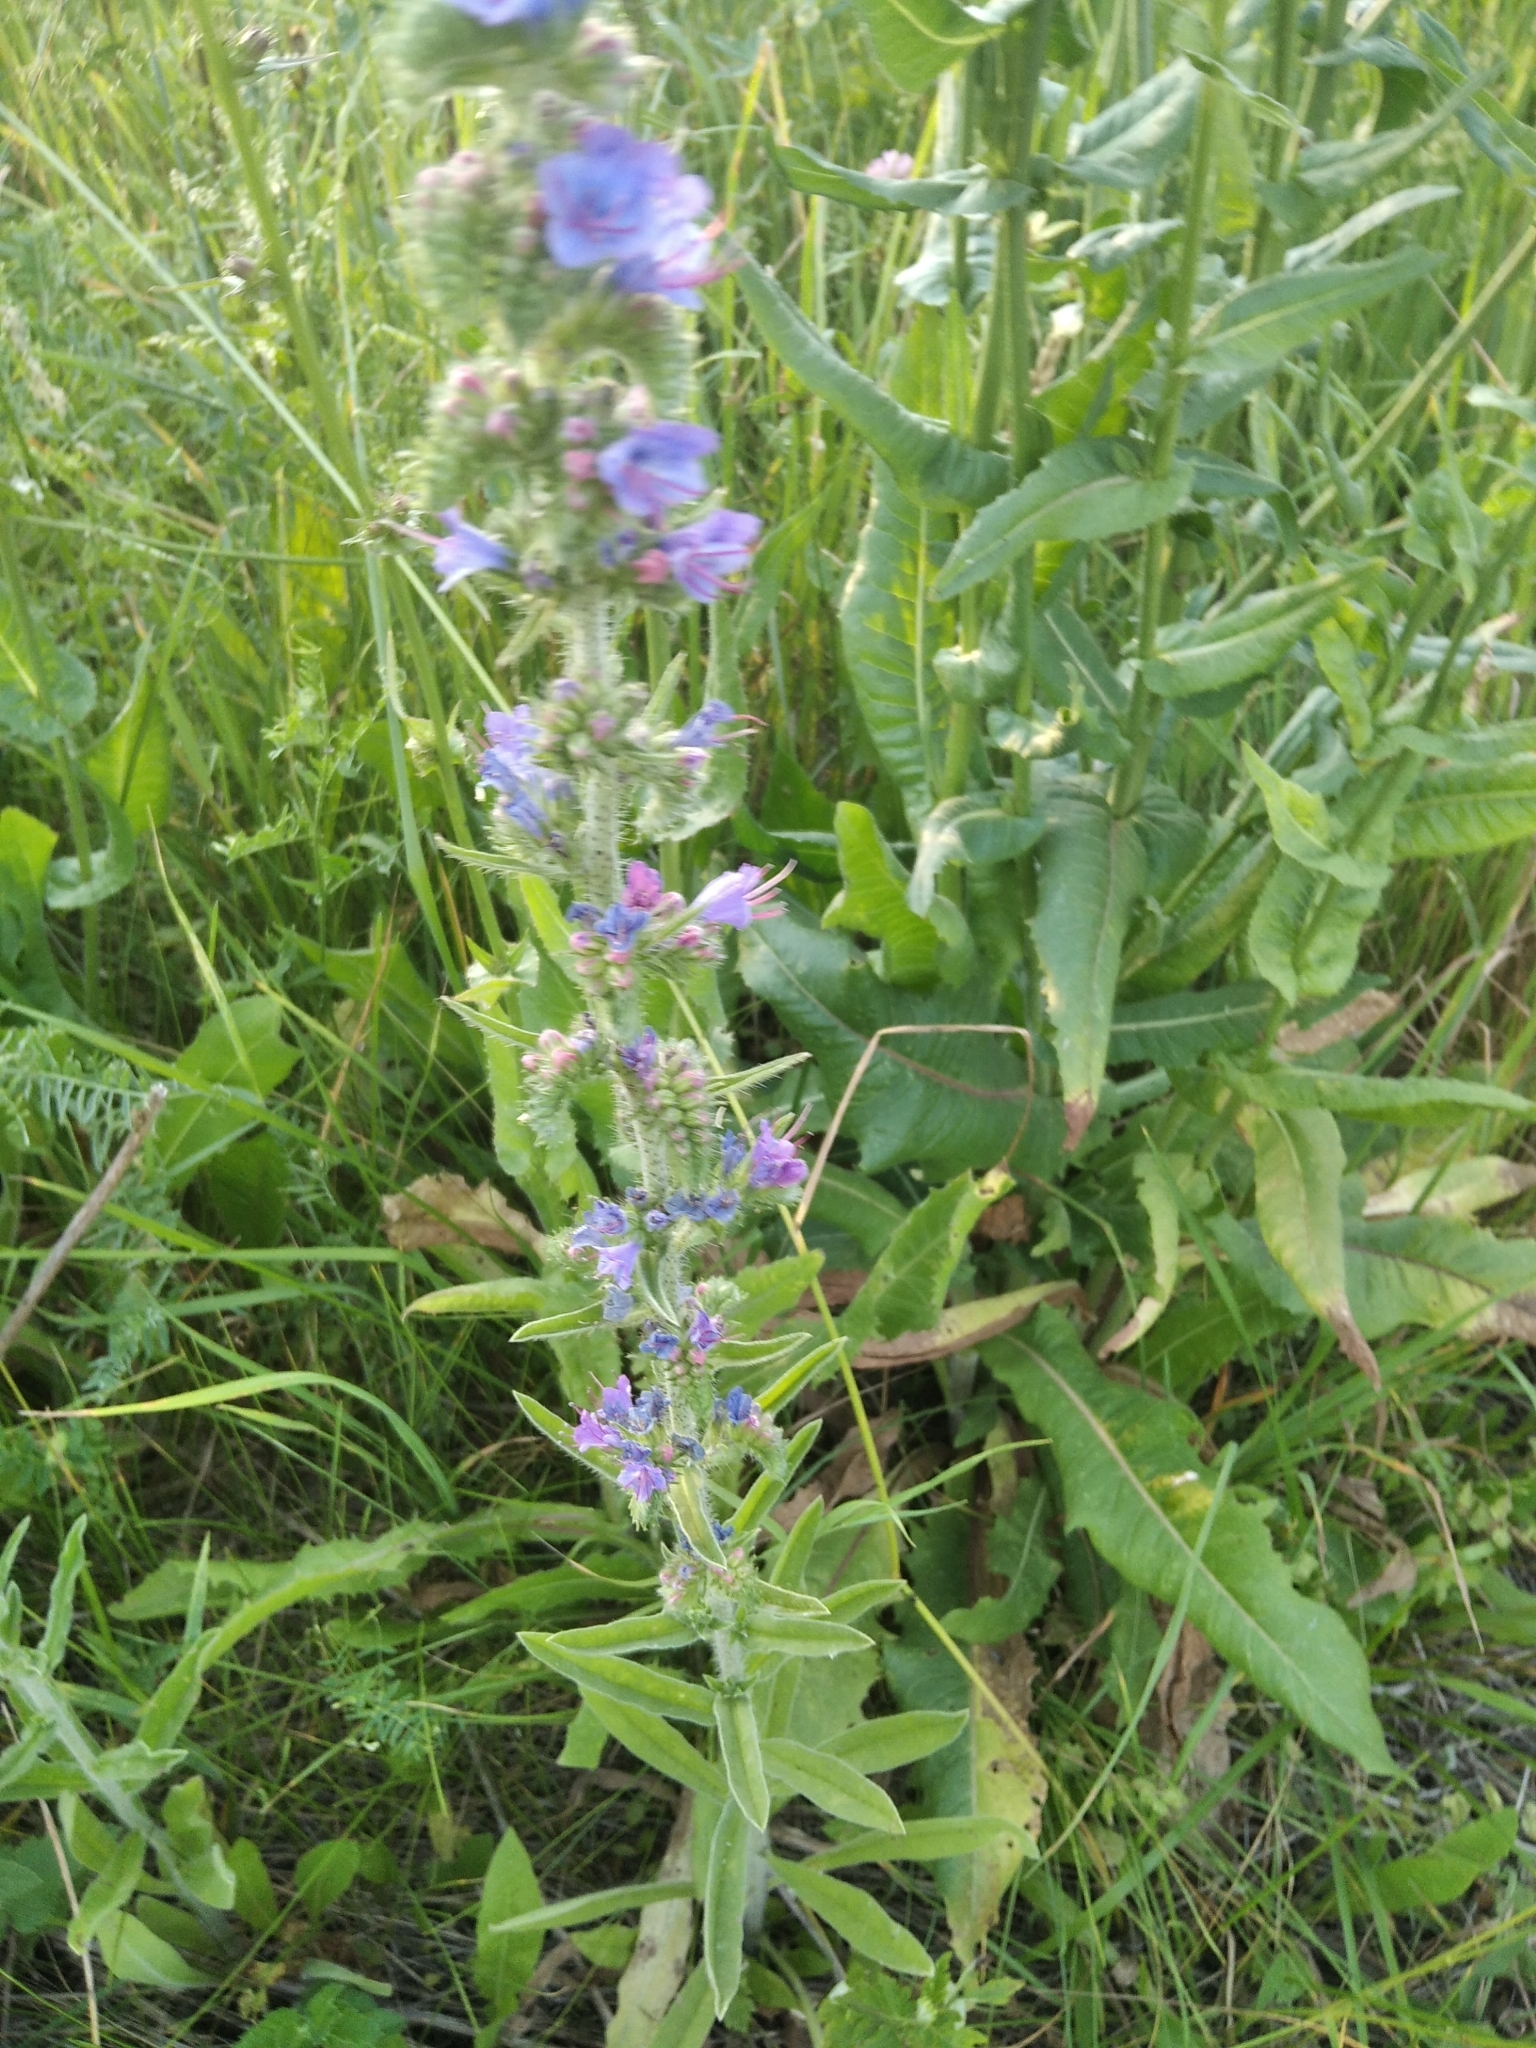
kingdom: Plantae
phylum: Tracheophyta
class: Magnoliopsida
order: Boraginales
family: Boraginaceae
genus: Echium
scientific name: Echium vulgare
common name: Common viper's bugloss
